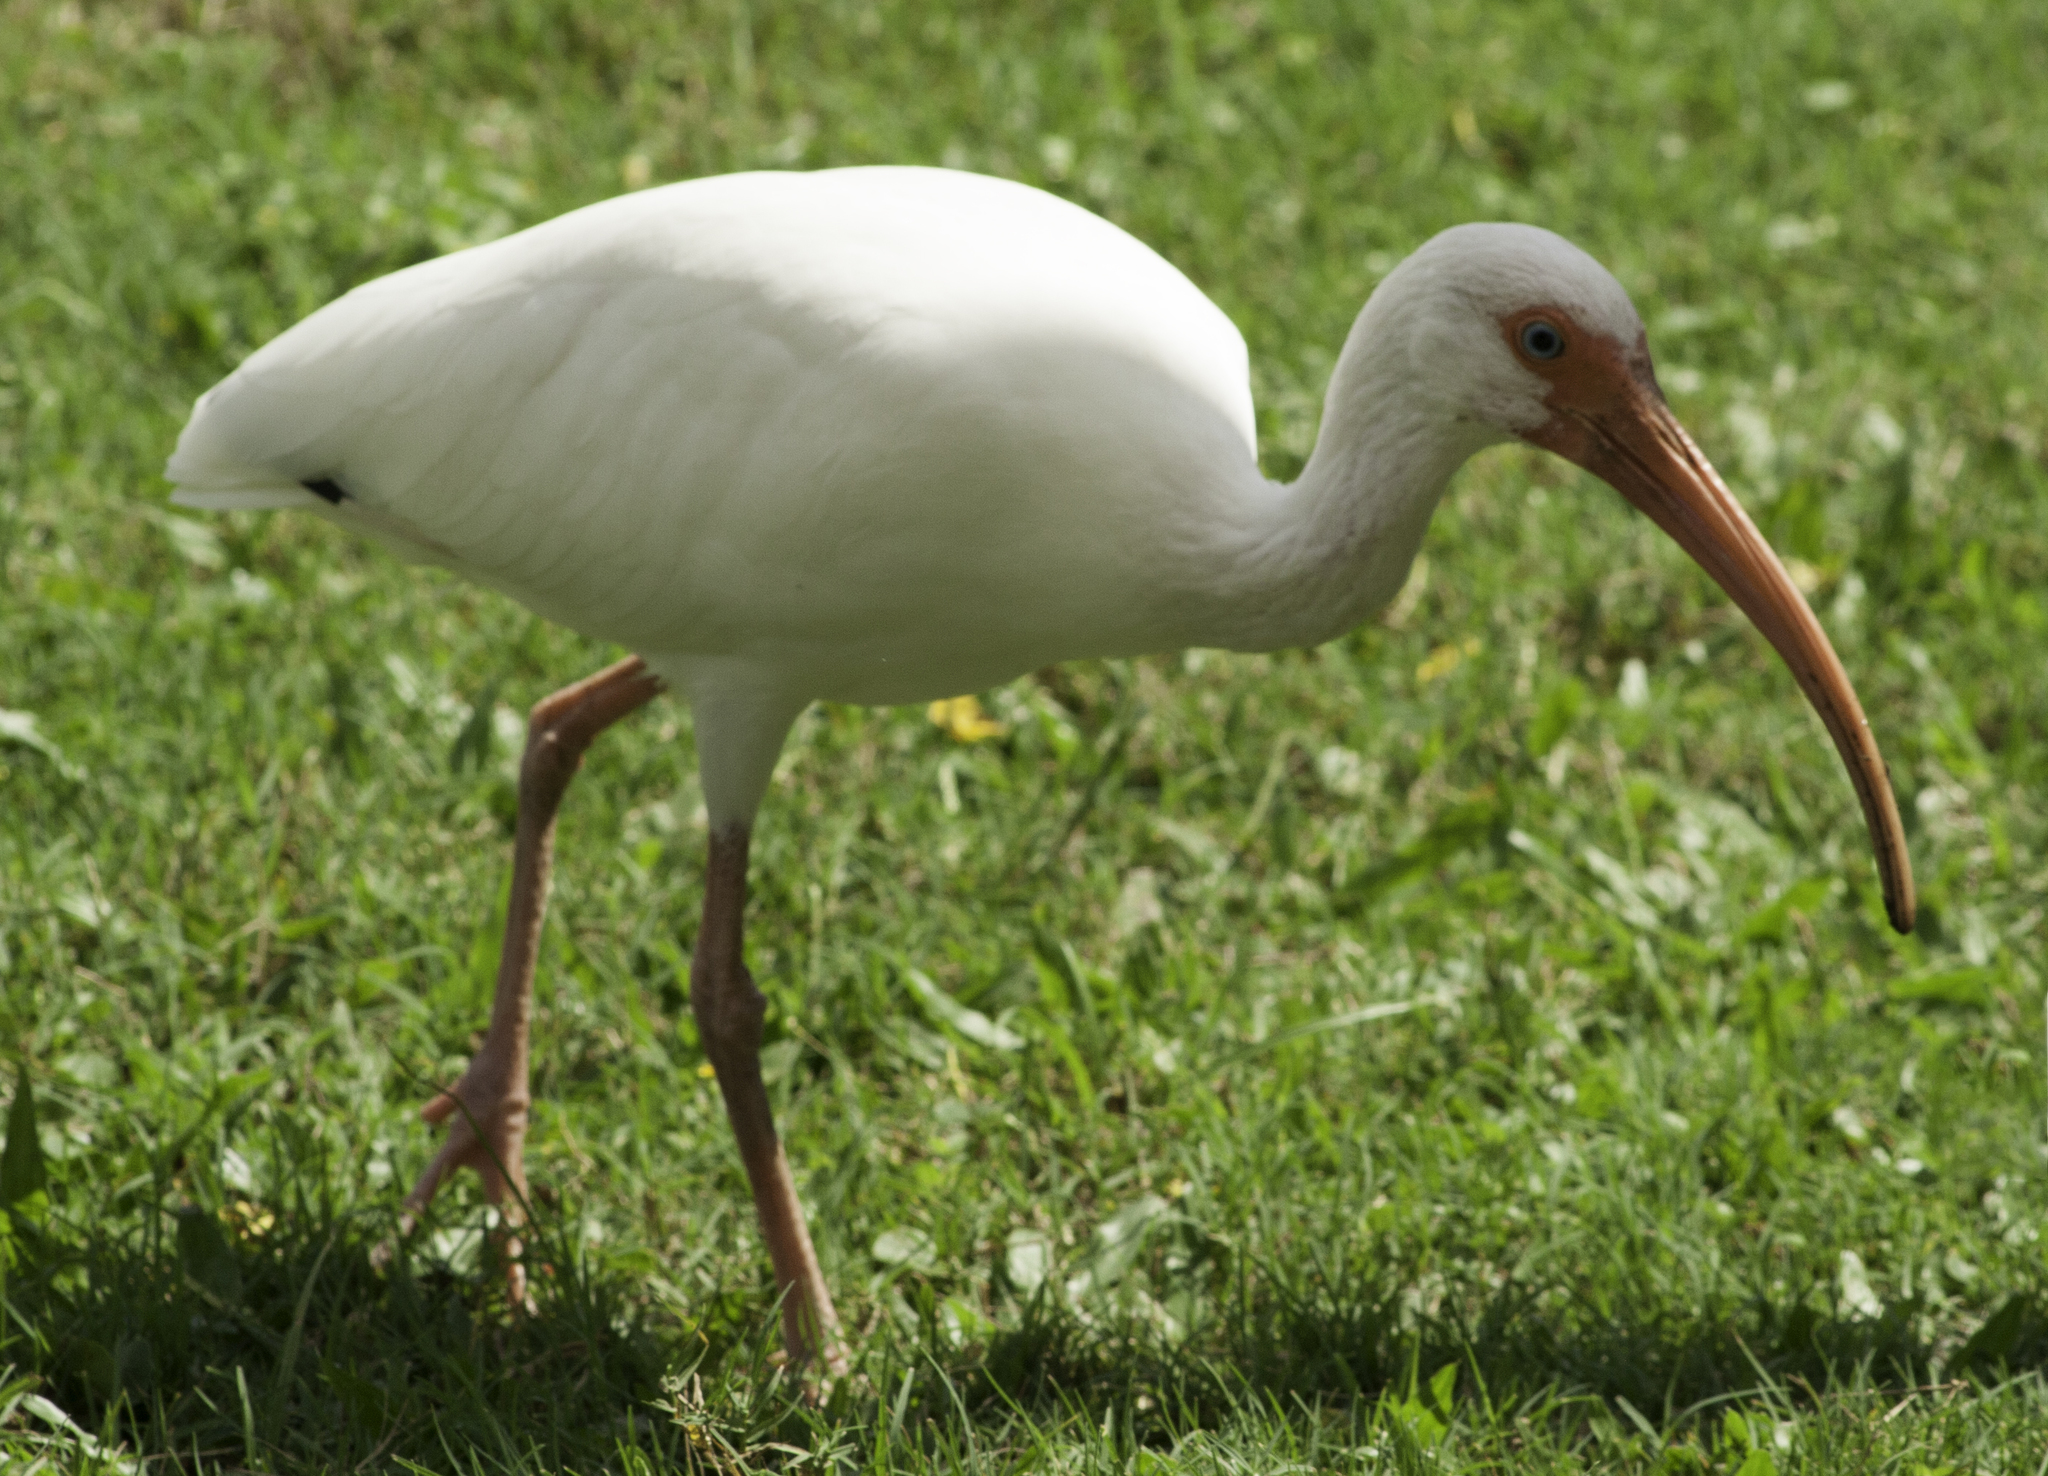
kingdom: Animalia
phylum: Chordata
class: Aves
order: Pelecaniformes
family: Threskiornithidae
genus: Eudocimus
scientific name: Eudocimus albus
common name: White ibis
